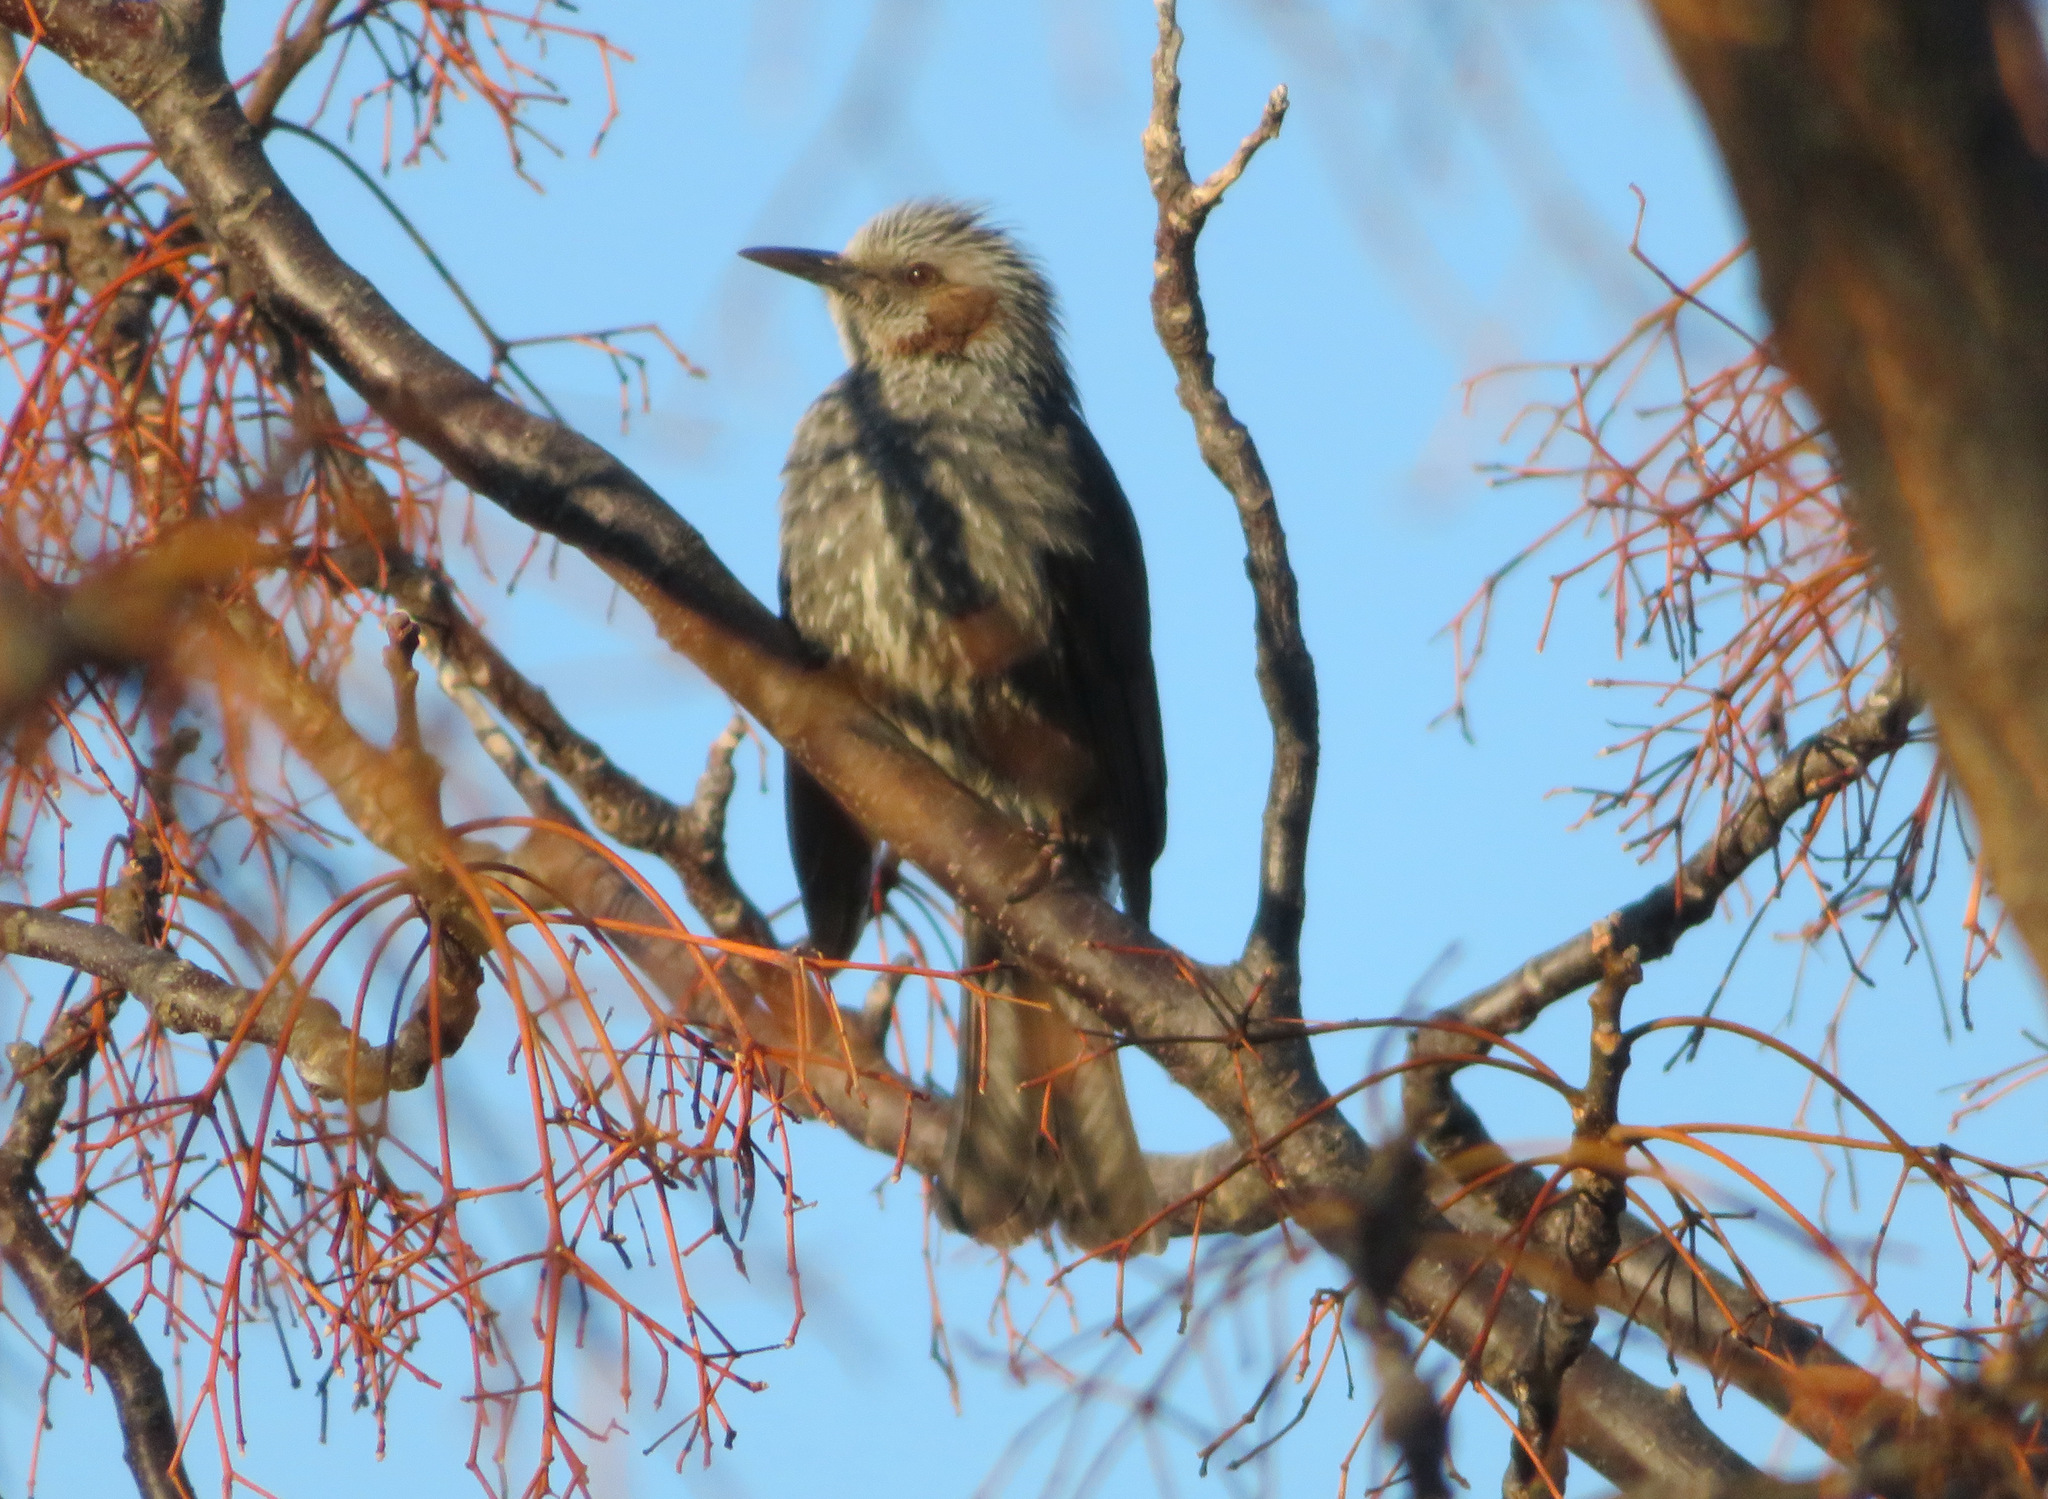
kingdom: Animalia
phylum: Chordata
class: Aves
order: Passeriformes
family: Pycnonotidae
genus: Hypsipetes
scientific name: Hypsipetes amaurotis
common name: Brown-eared bulbul
